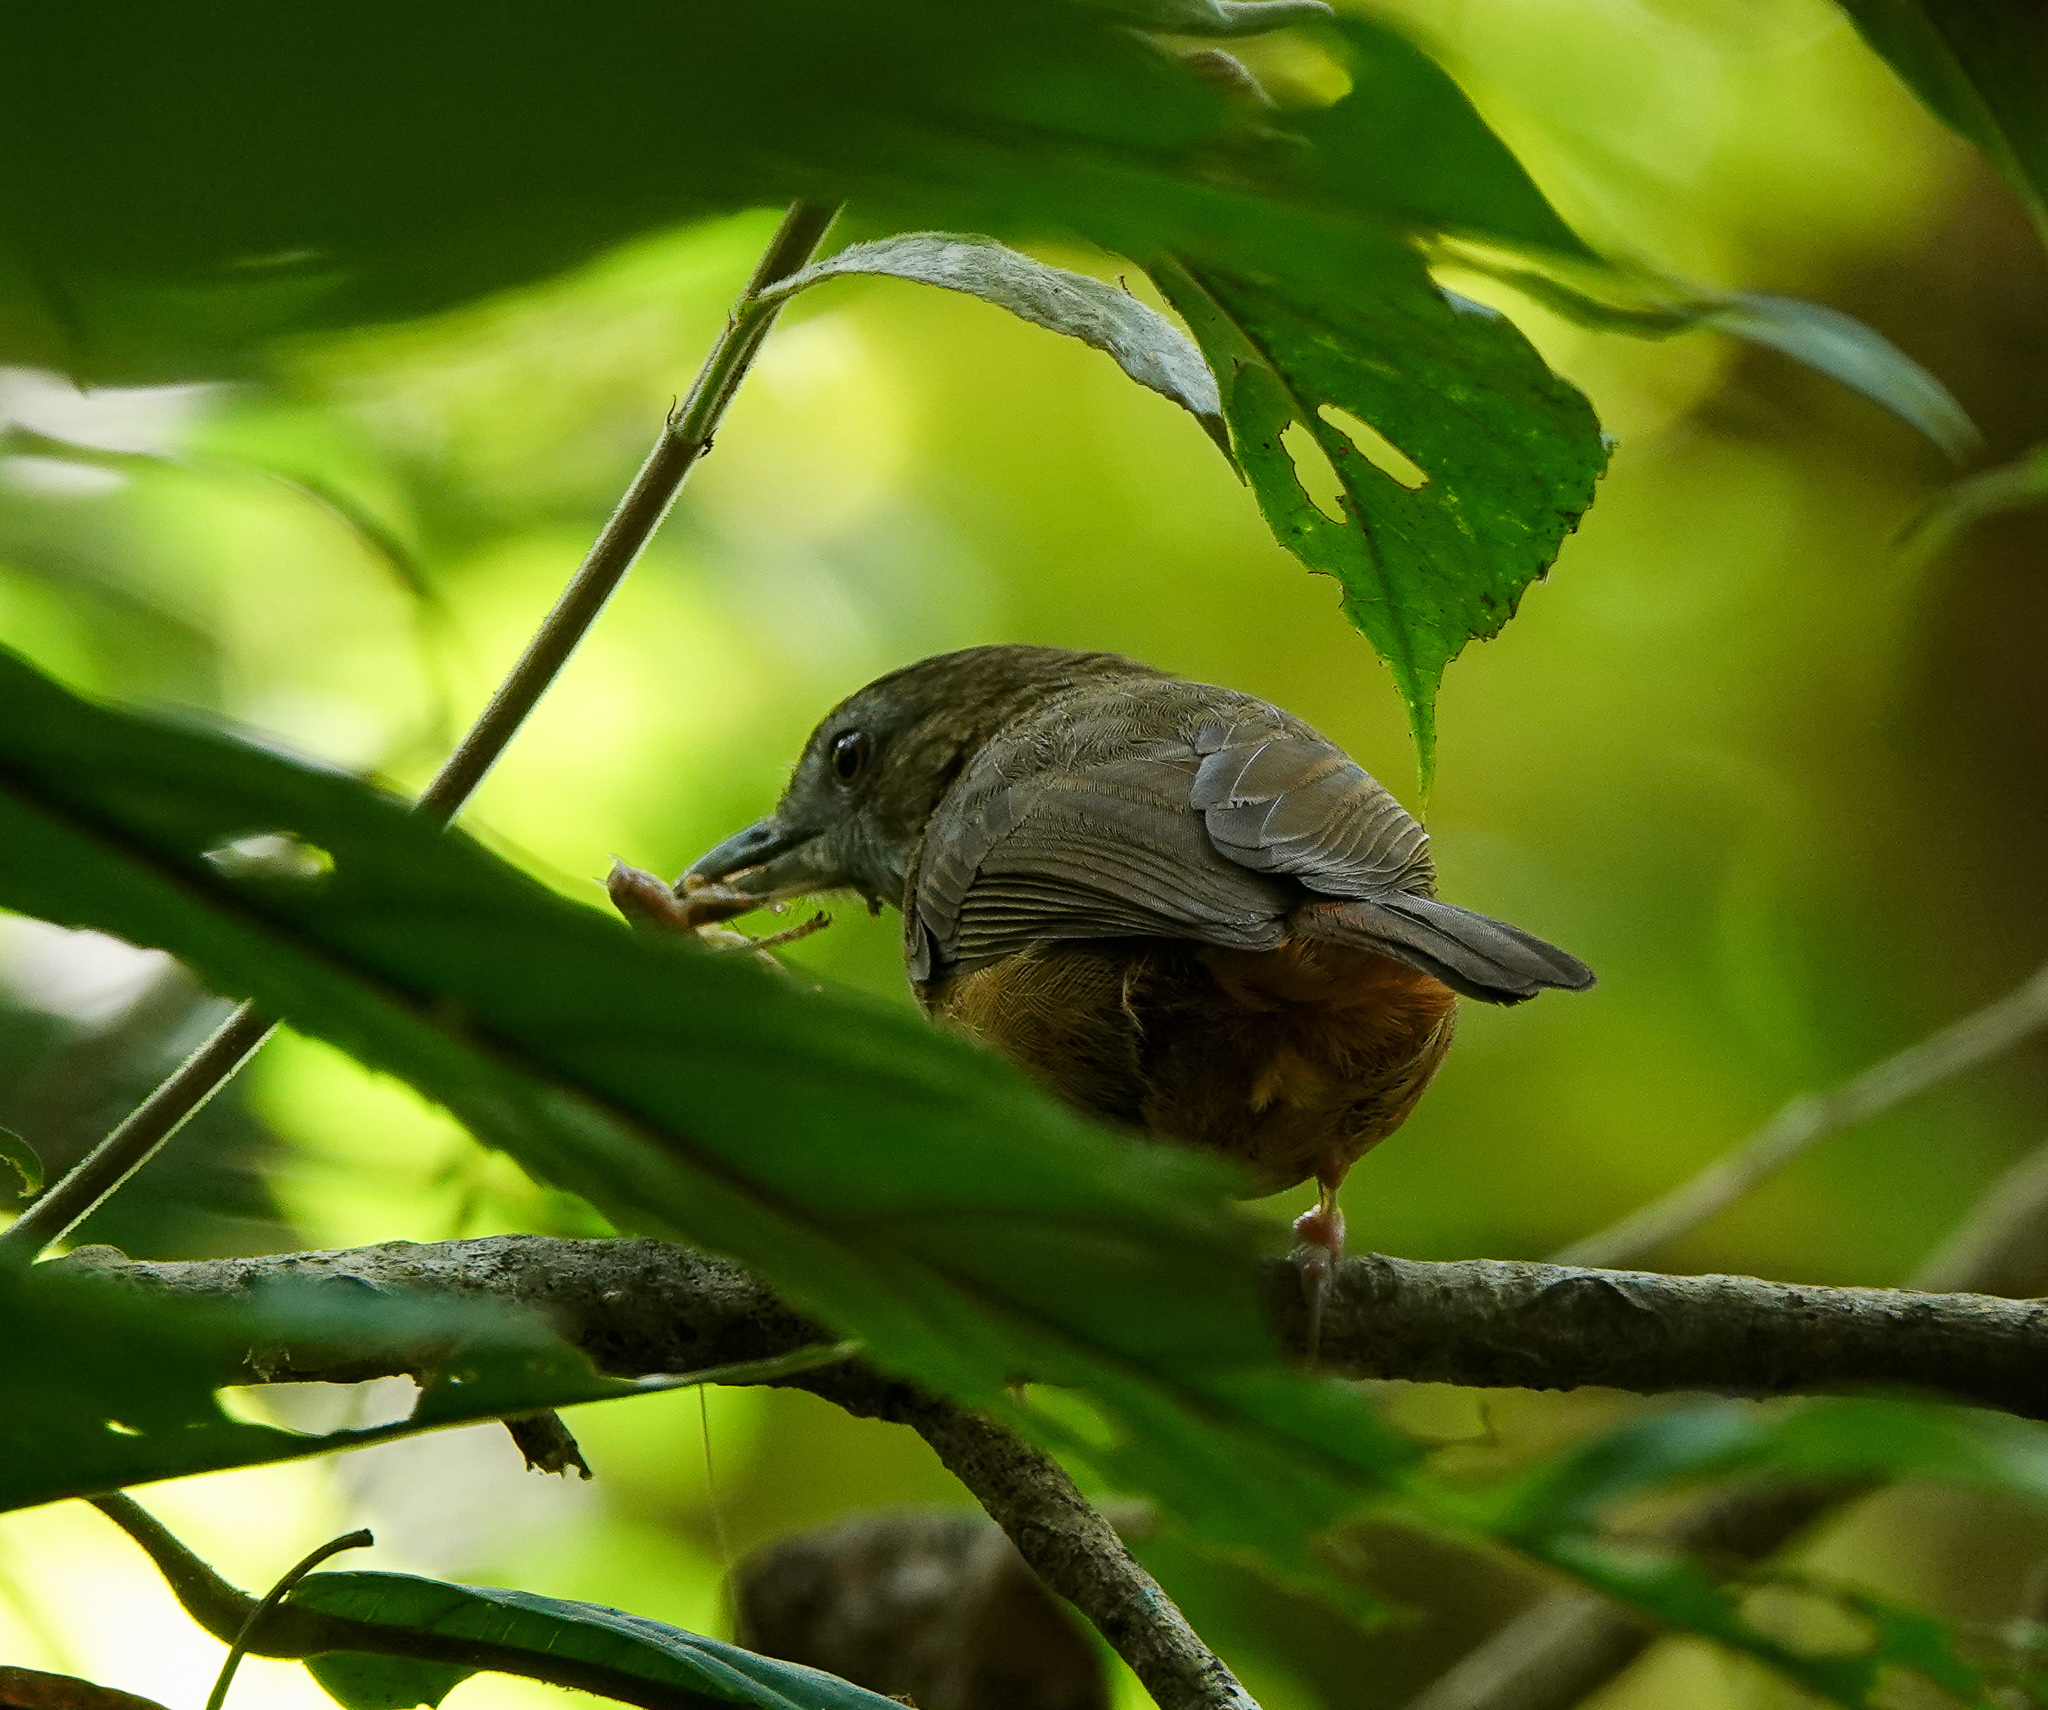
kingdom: Animalia
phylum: Chordata
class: Aves
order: Passeriformes
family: Pellorneidae
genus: Malacocincla
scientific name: Malacocincla abbotti
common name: Abbott's babbler
